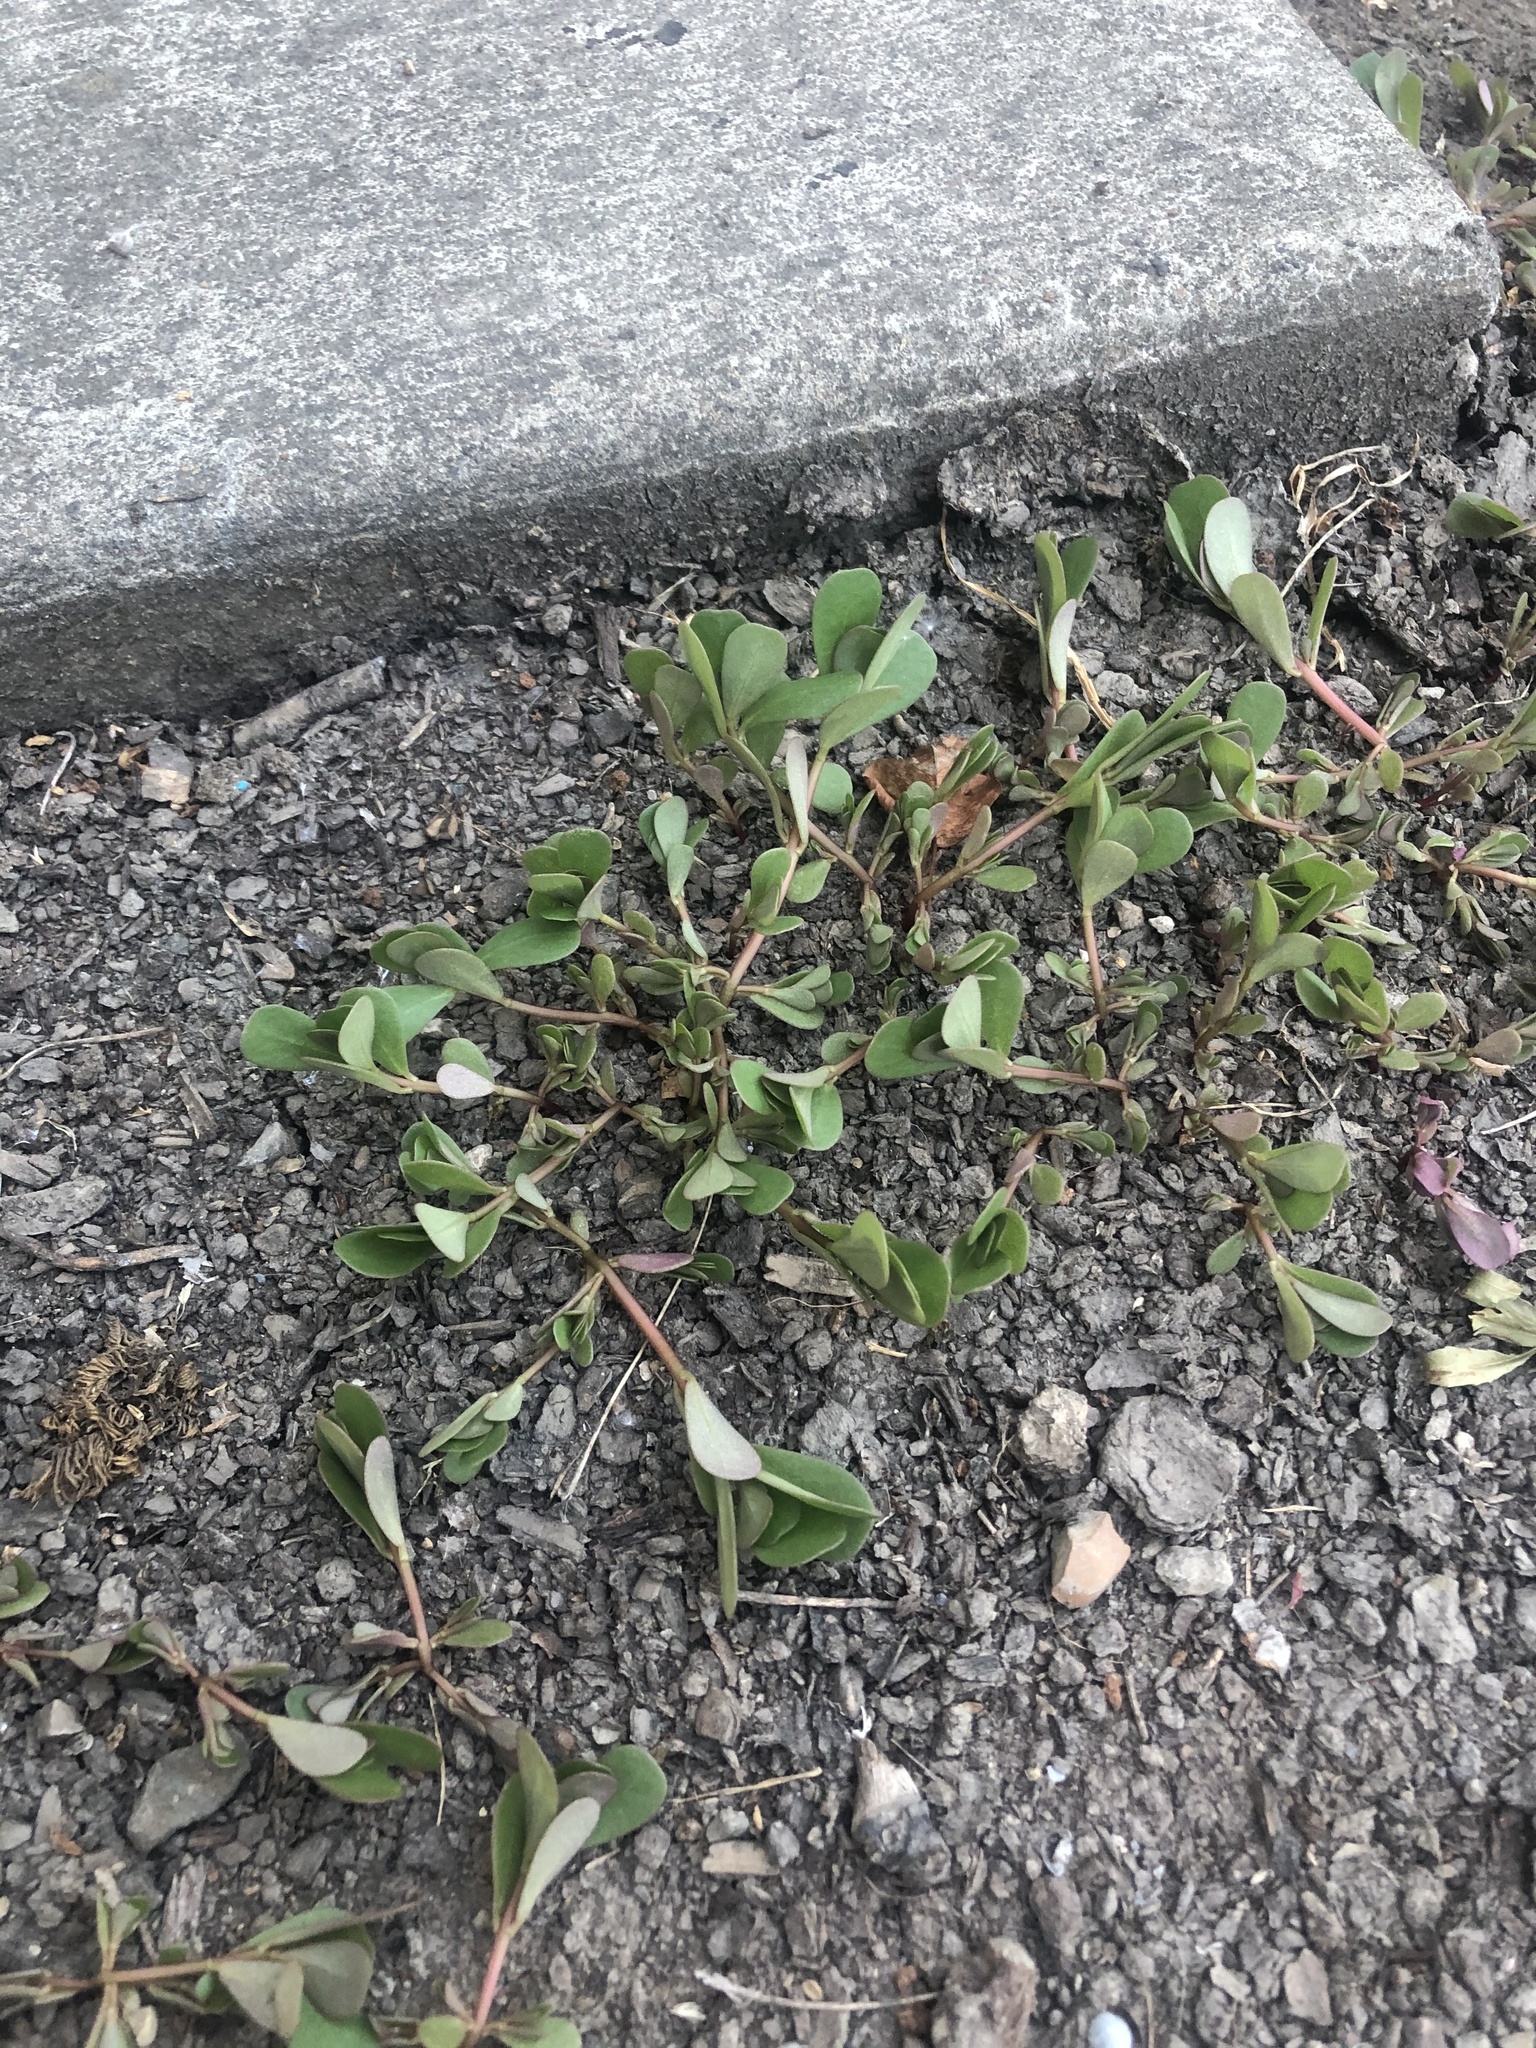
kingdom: Plantae
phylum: Tracheophyta
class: Magnoliopsida
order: Caryophyllales
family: Portulacaceae
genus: Portulaca
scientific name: Portulaca oleracea
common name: Common purslane
